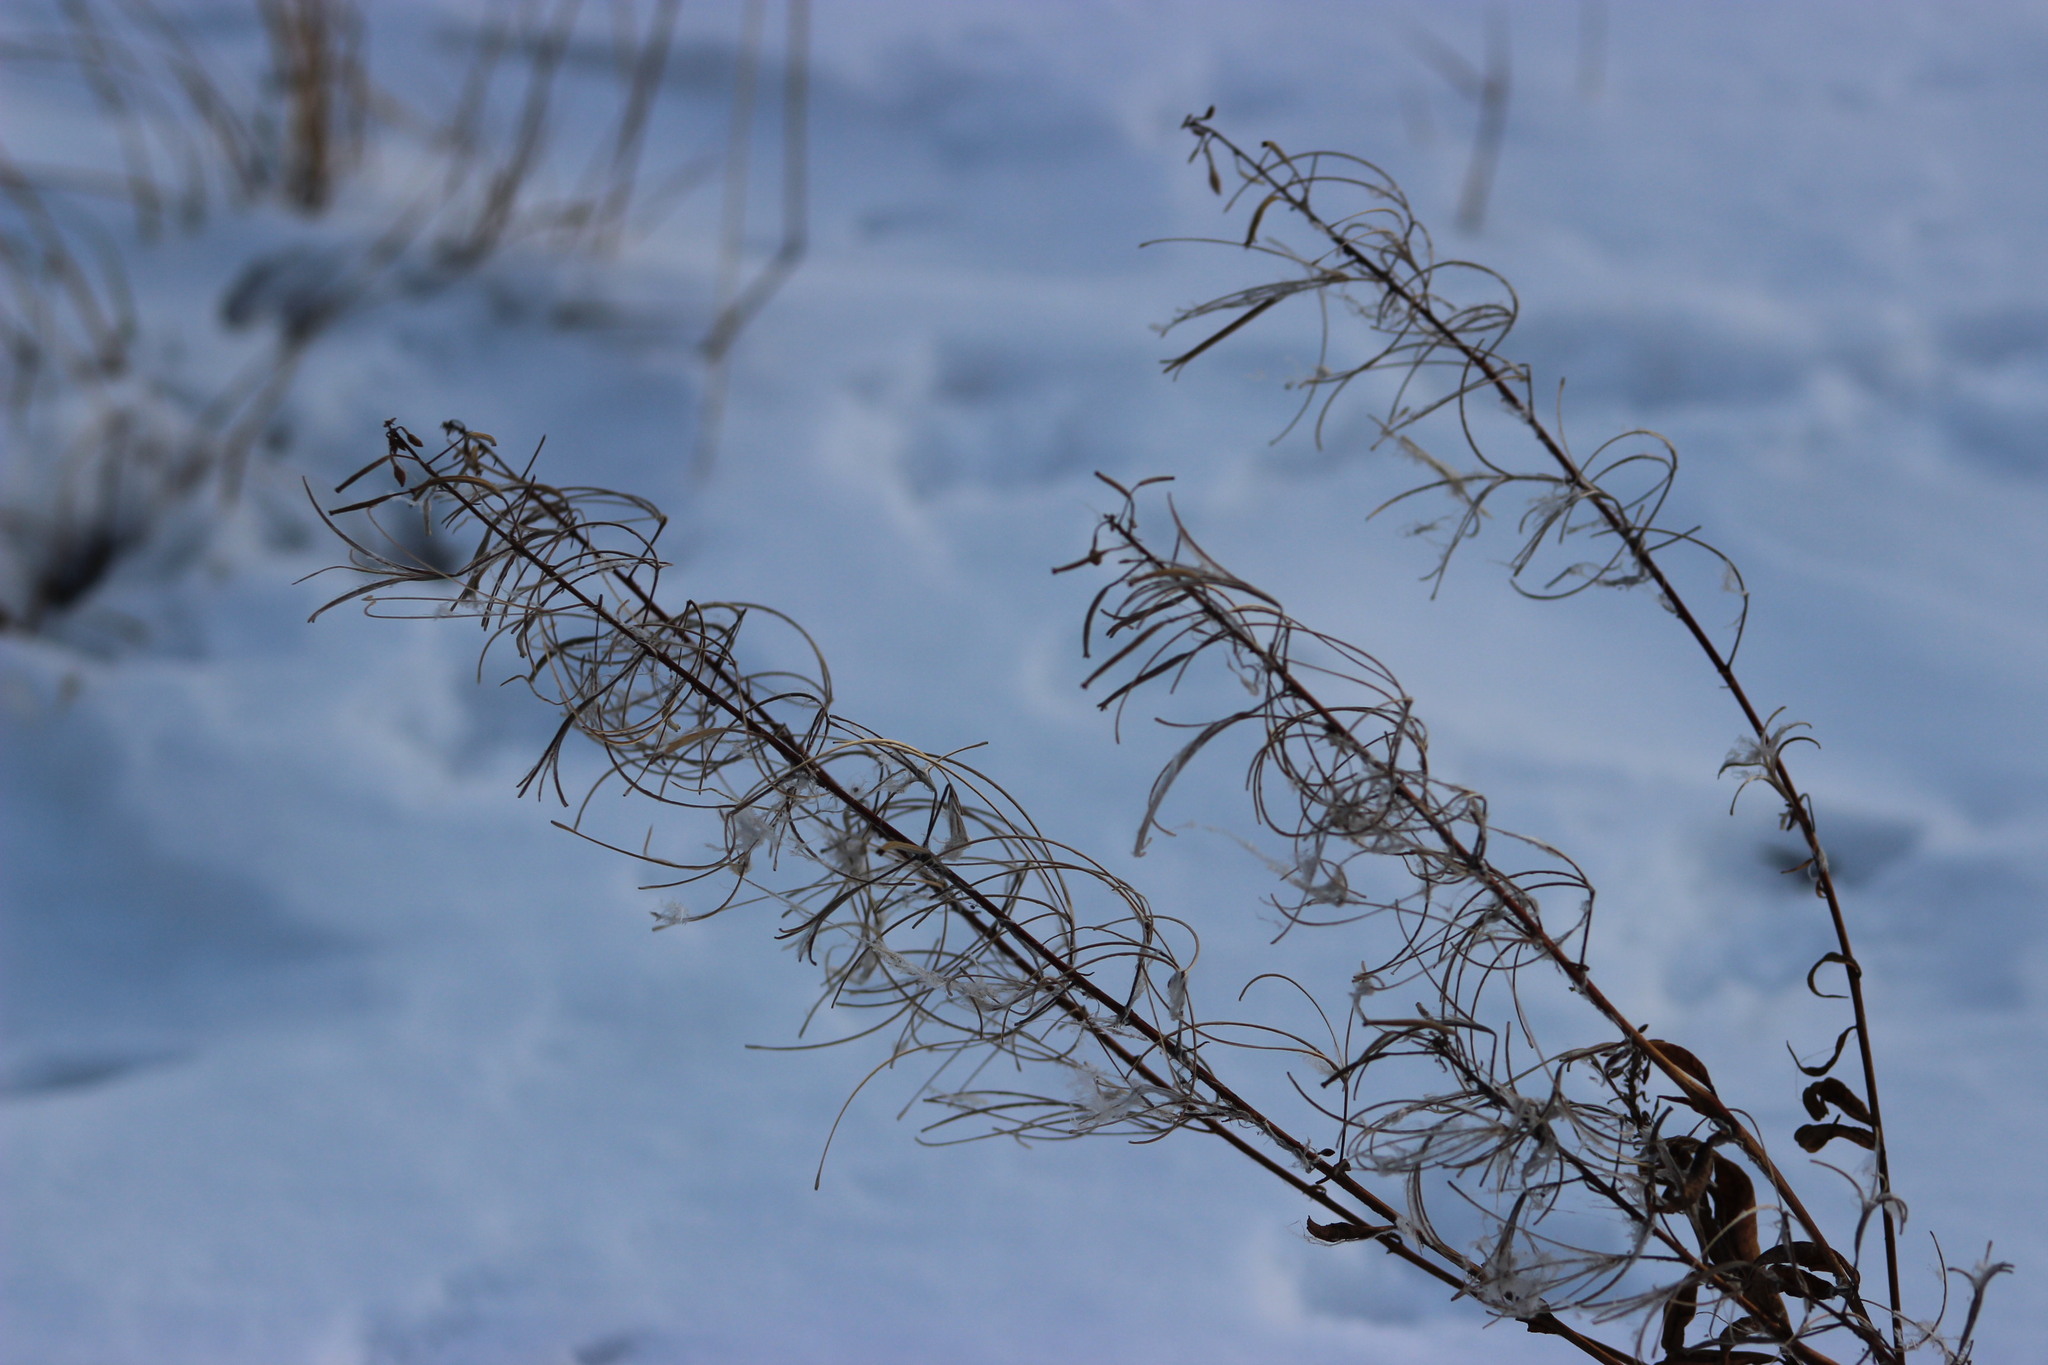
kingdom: Plantae
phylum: Tracheophyta
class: Magnoliopsida
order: Myrtales
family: Onagraceae
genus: Chamaenerion
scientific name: Chamaenerion angustifolium
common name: Fireweed
